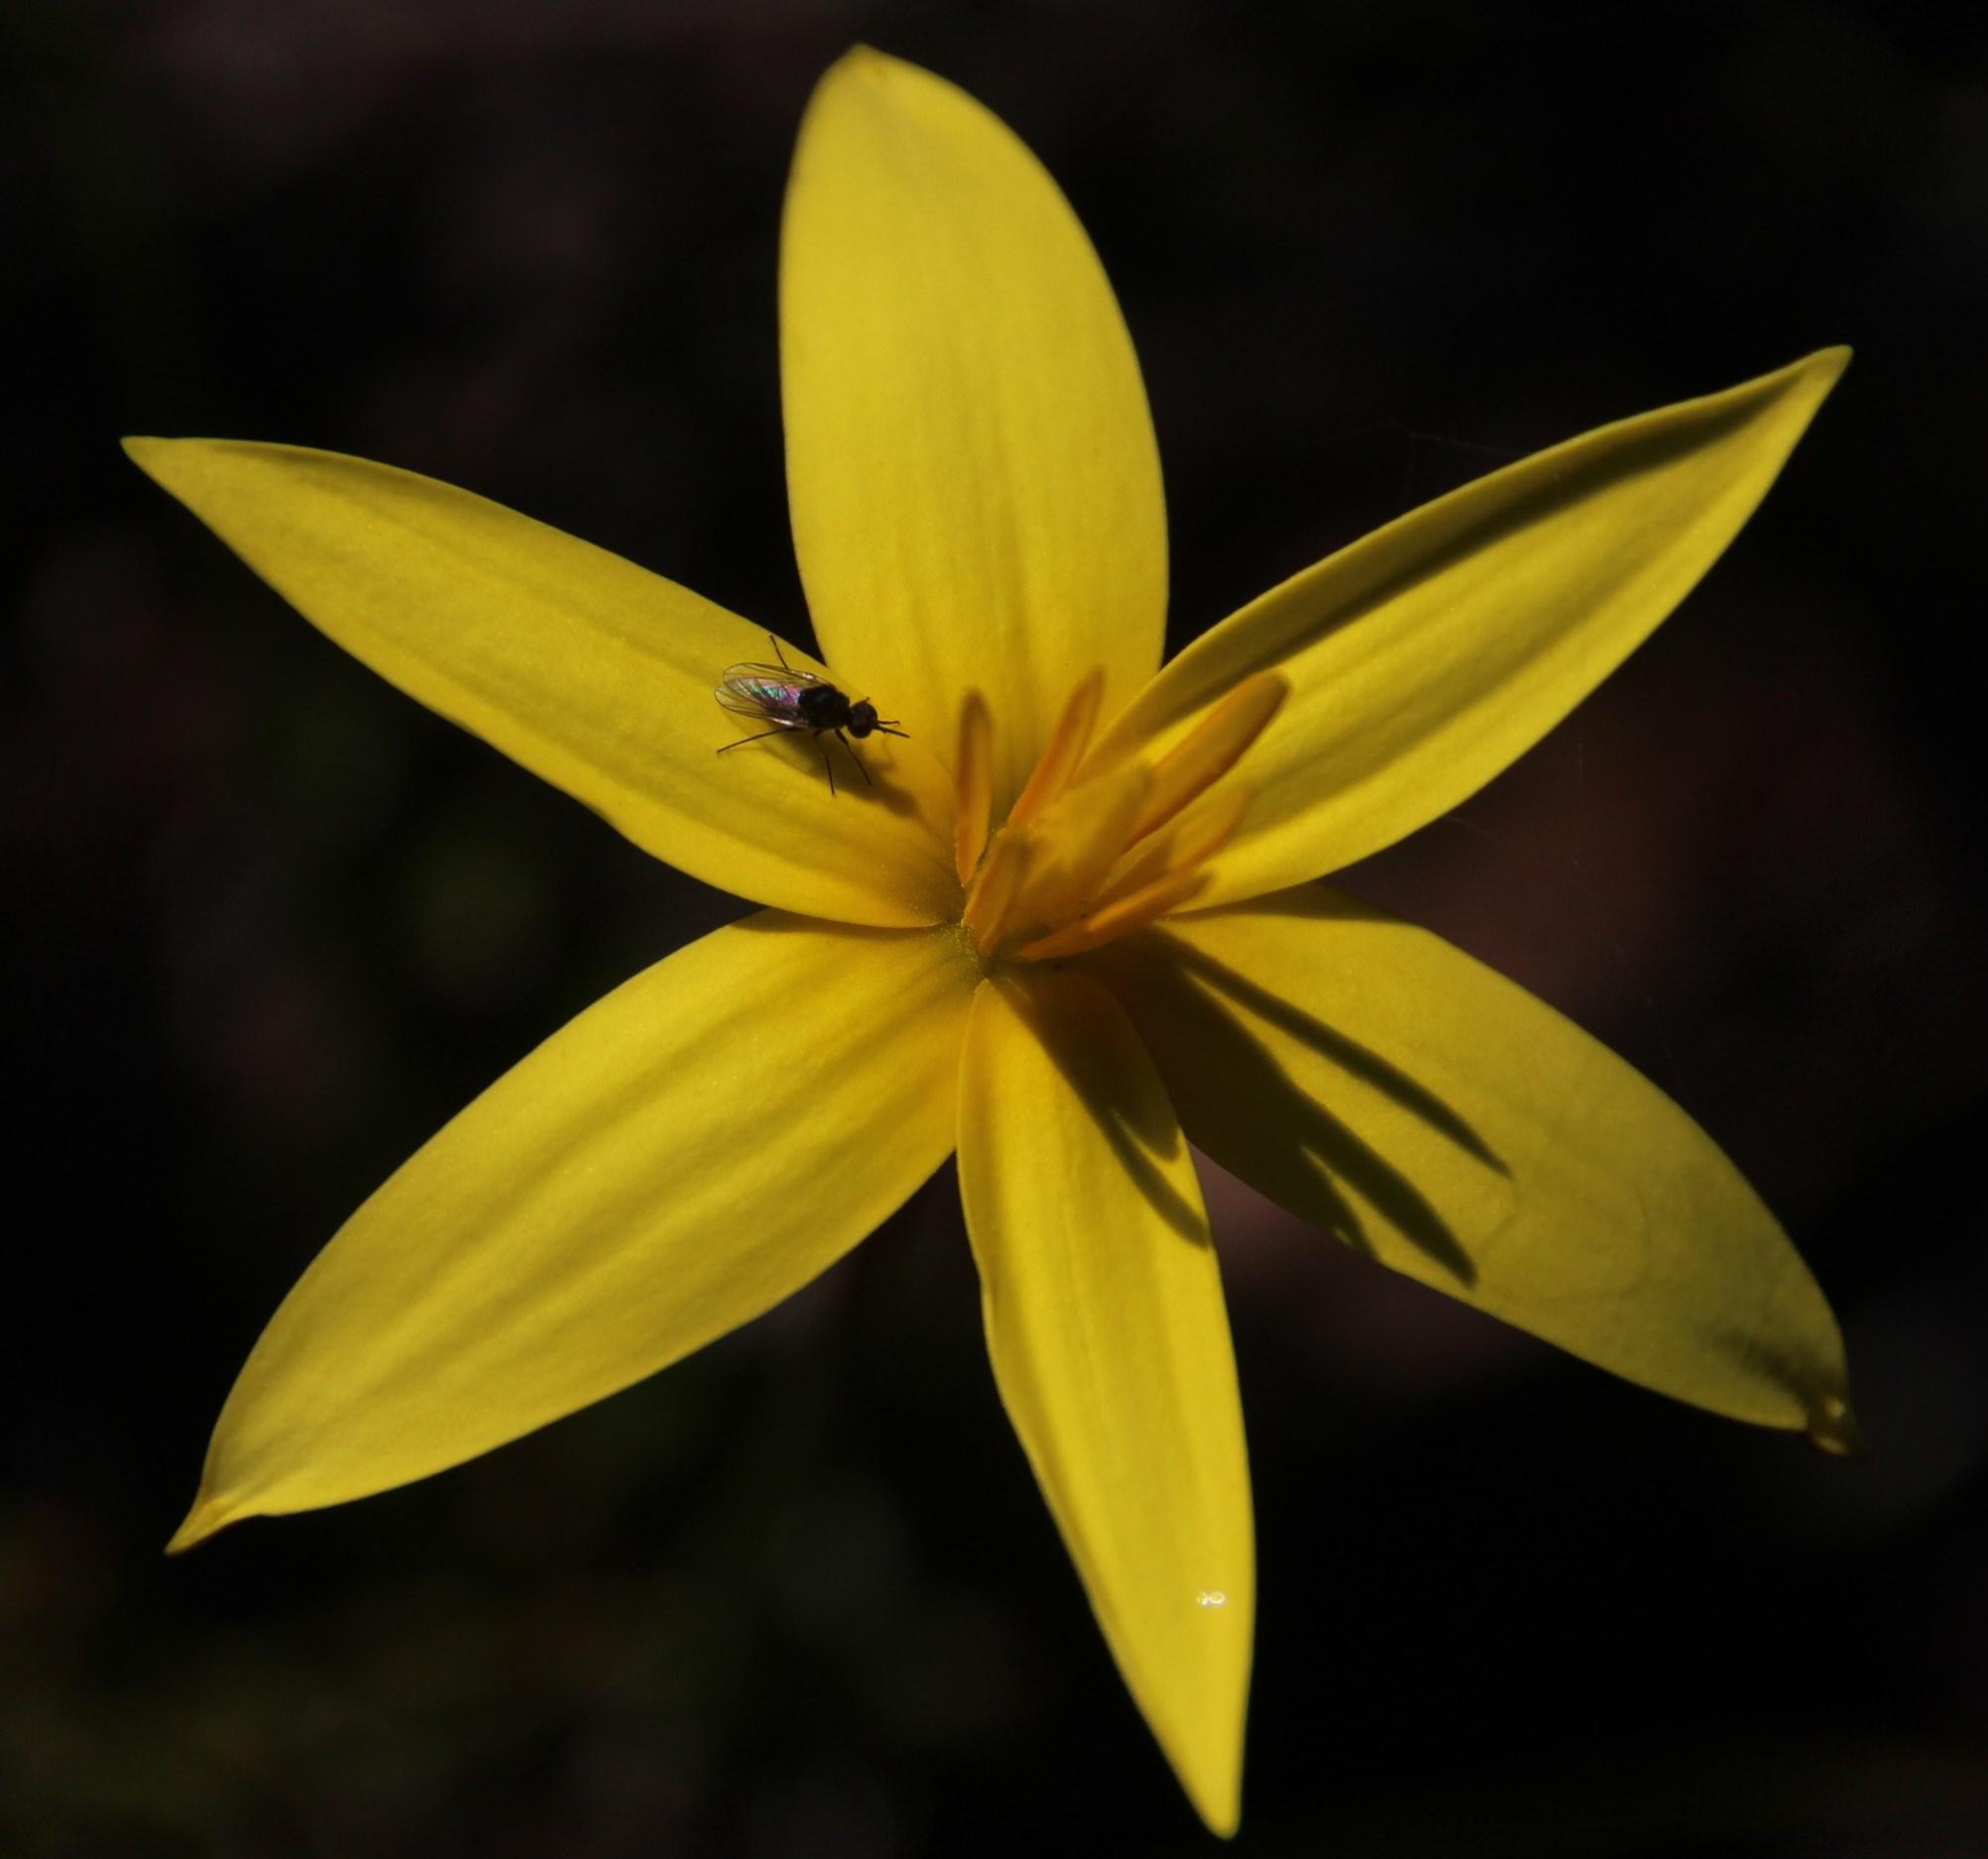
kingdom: Plantae
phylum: Tracheophyta
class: Liliopsida
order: Asparagales
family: Hypoxidaceae
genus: Pauridia
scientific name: Pauridia capensis
